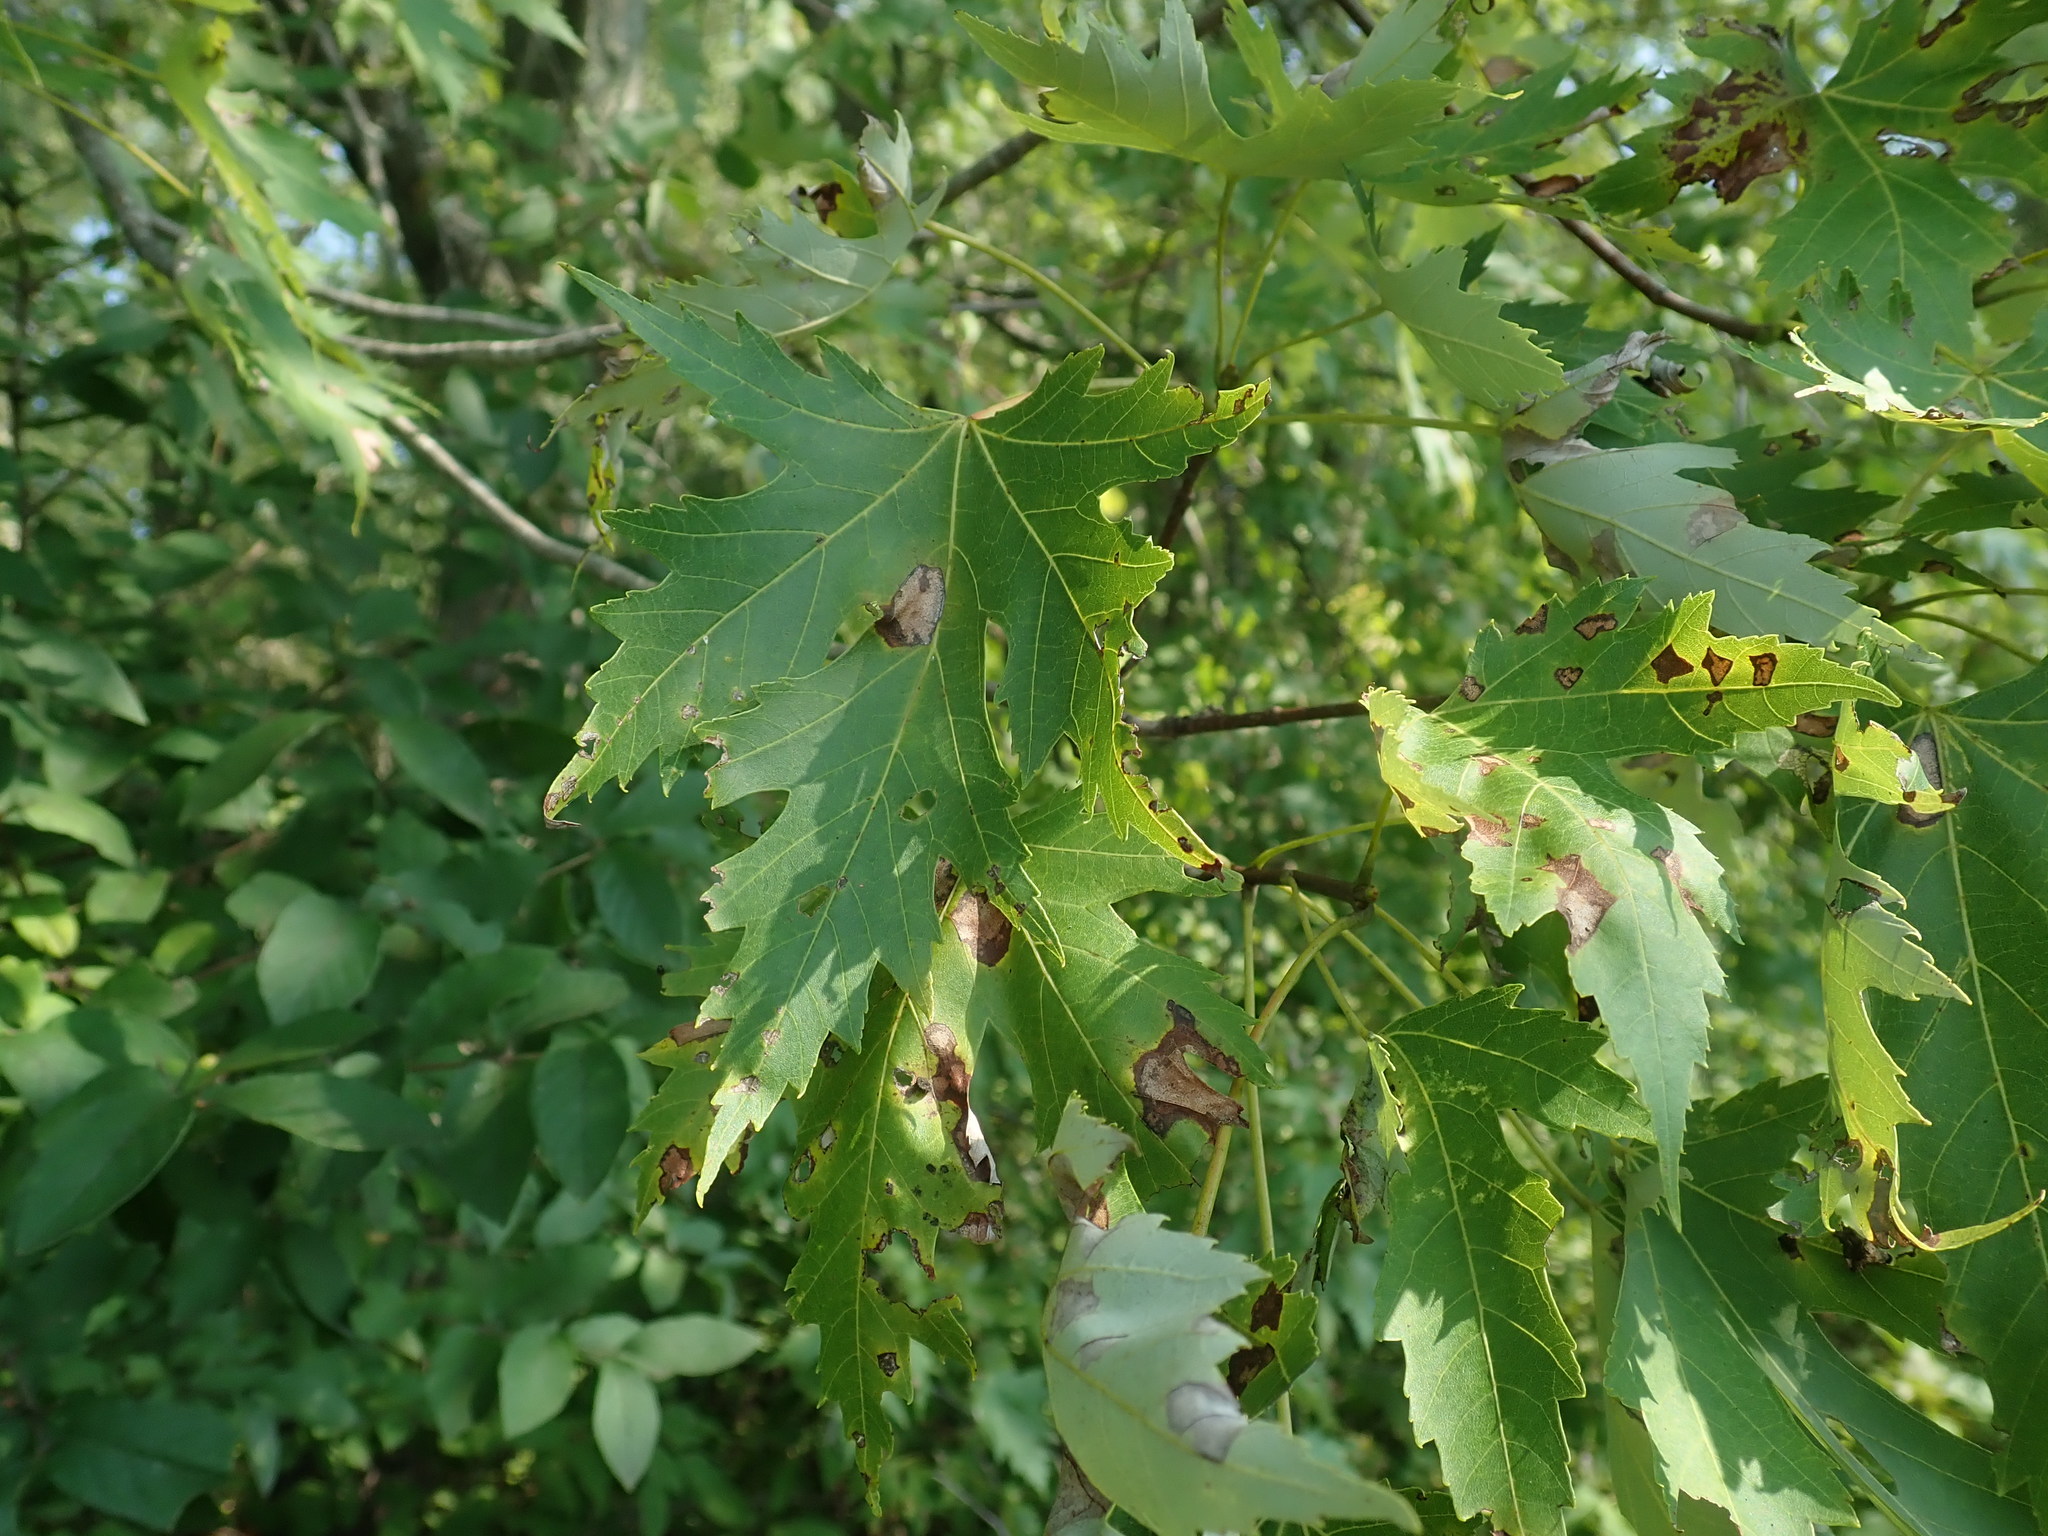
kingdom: Plantae
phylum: Tracheophyta
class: Magnoliopsida
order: Sapindales
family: Sapindaceae
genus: Acer
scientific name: Acer saccharinum
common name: Silver maple
